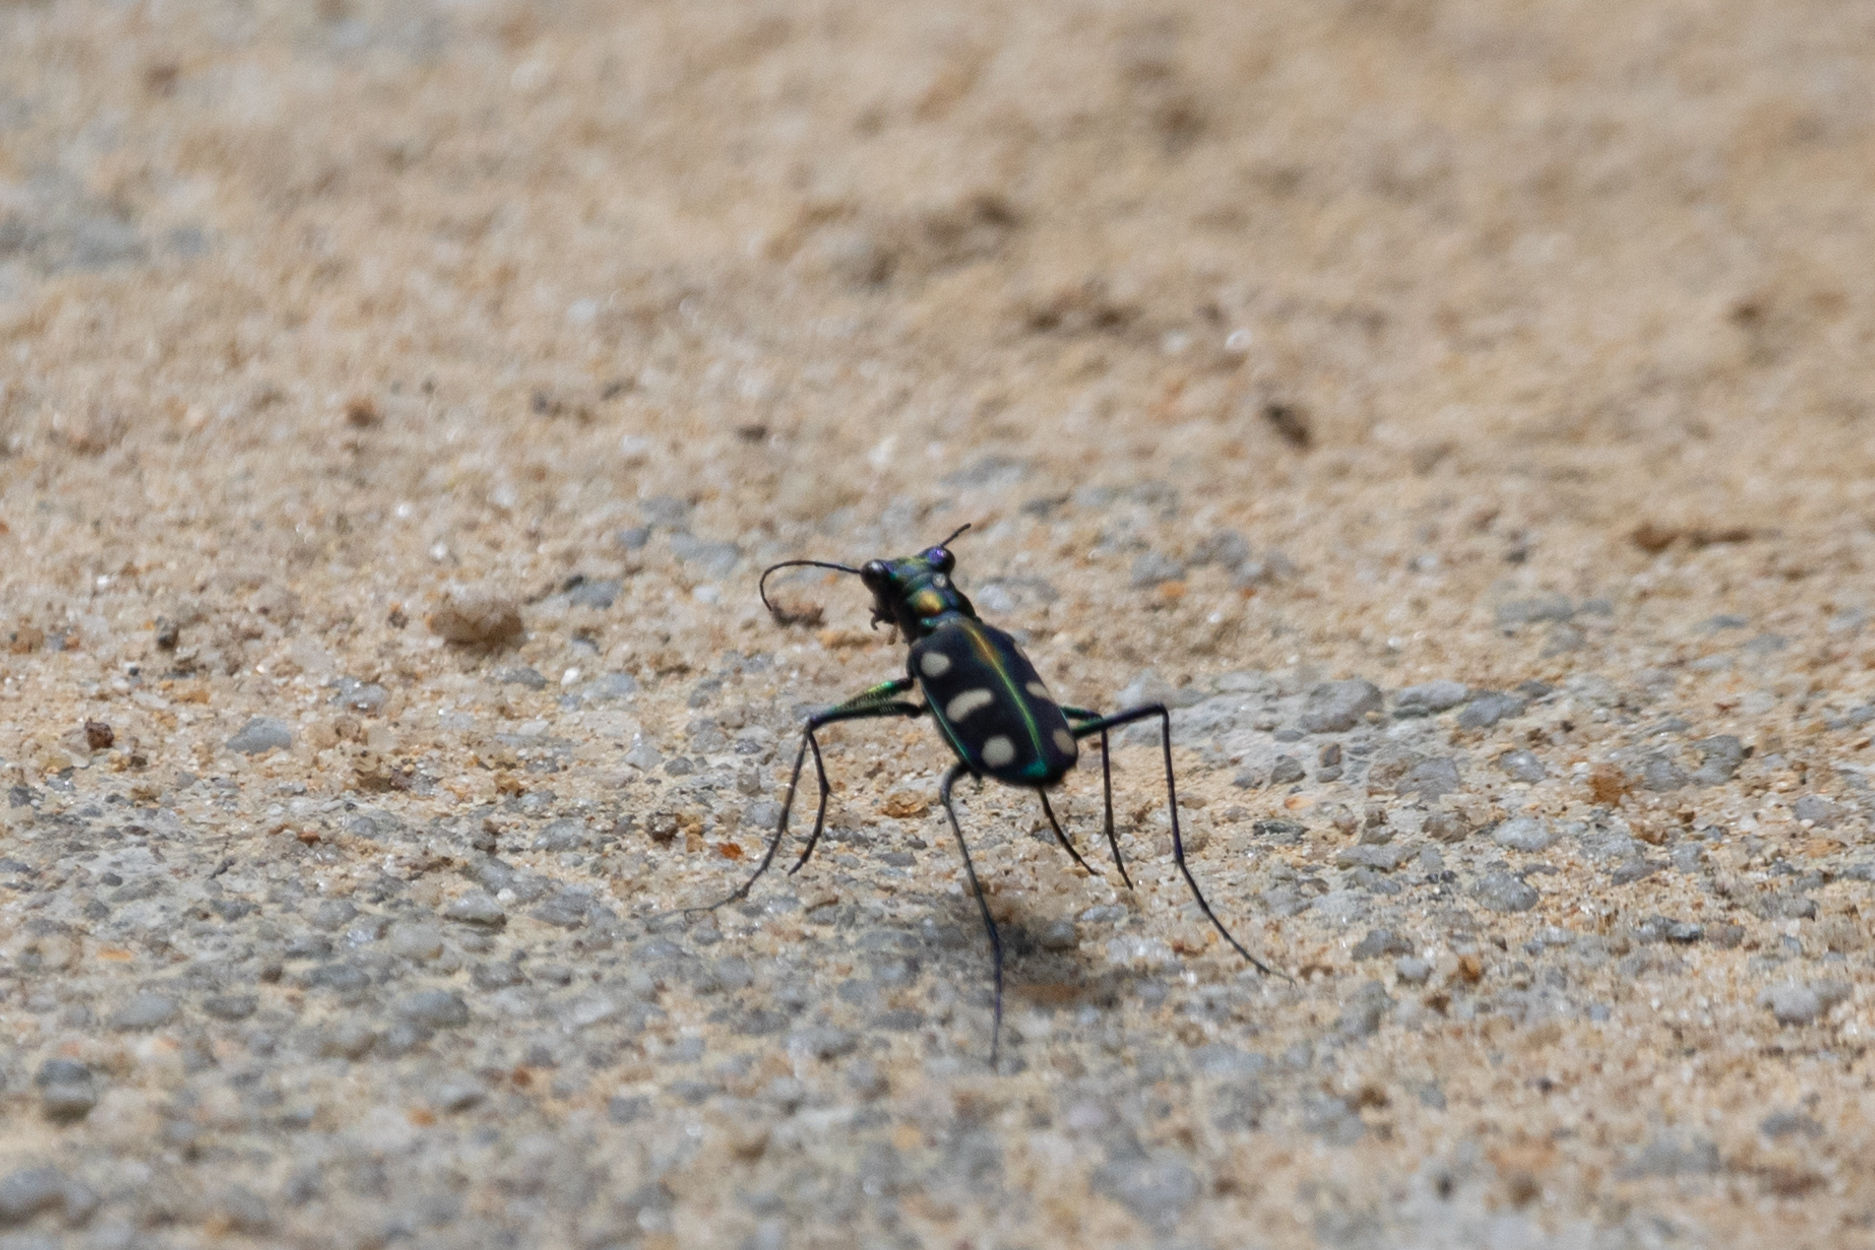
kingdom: Animalia
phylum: Arthropoda
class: Insecta
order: Coleoptera
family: Carabidae
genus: Cicindela
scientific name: Cicindela juxtata
